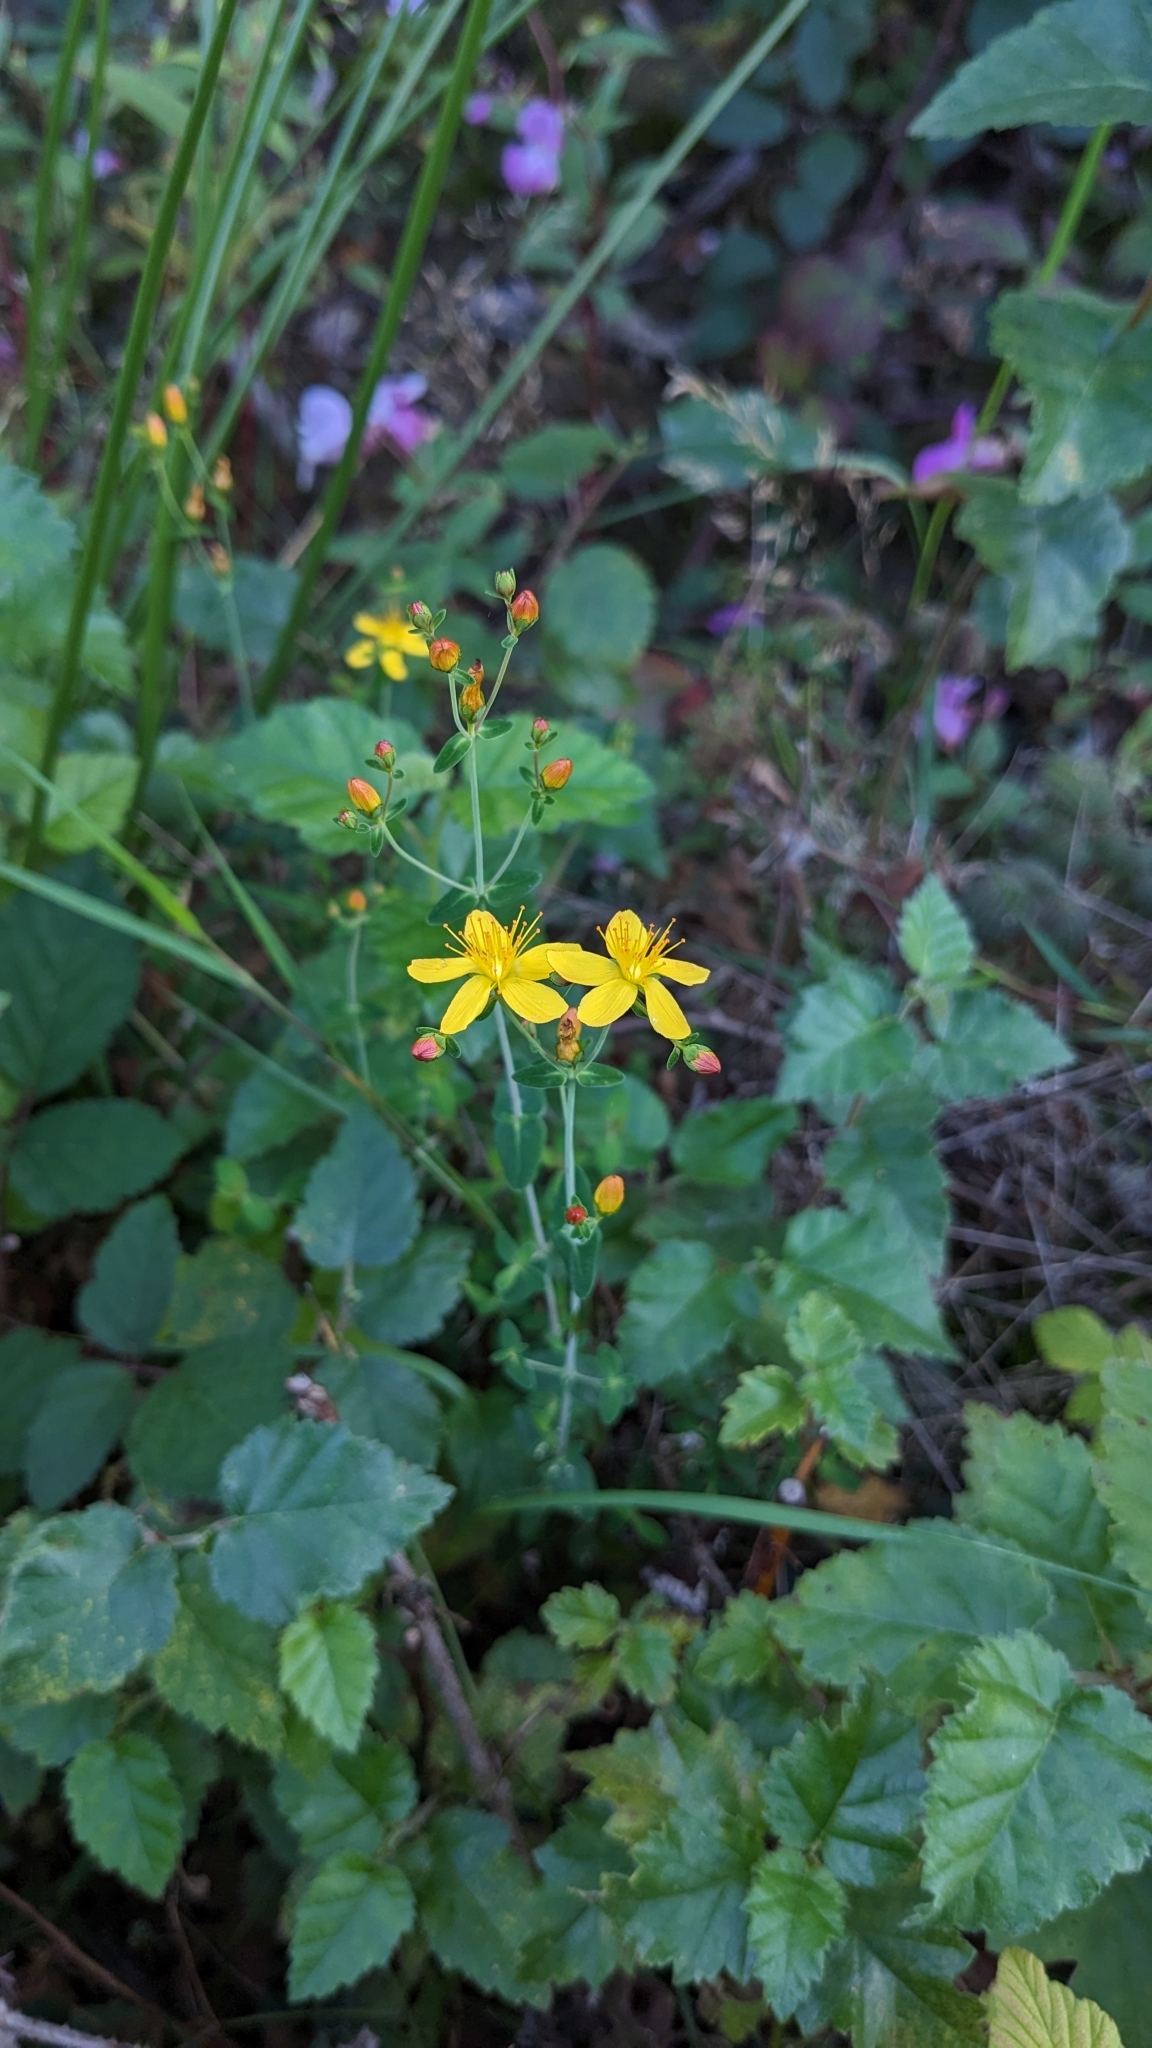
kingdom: Plantae
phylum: Tracheophyta
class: Magnoliopsida
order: Malpighiales
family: Hypericaceae
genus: Hypericum
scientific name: Hypericum pulchrum
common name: Slender st. john's-wort
